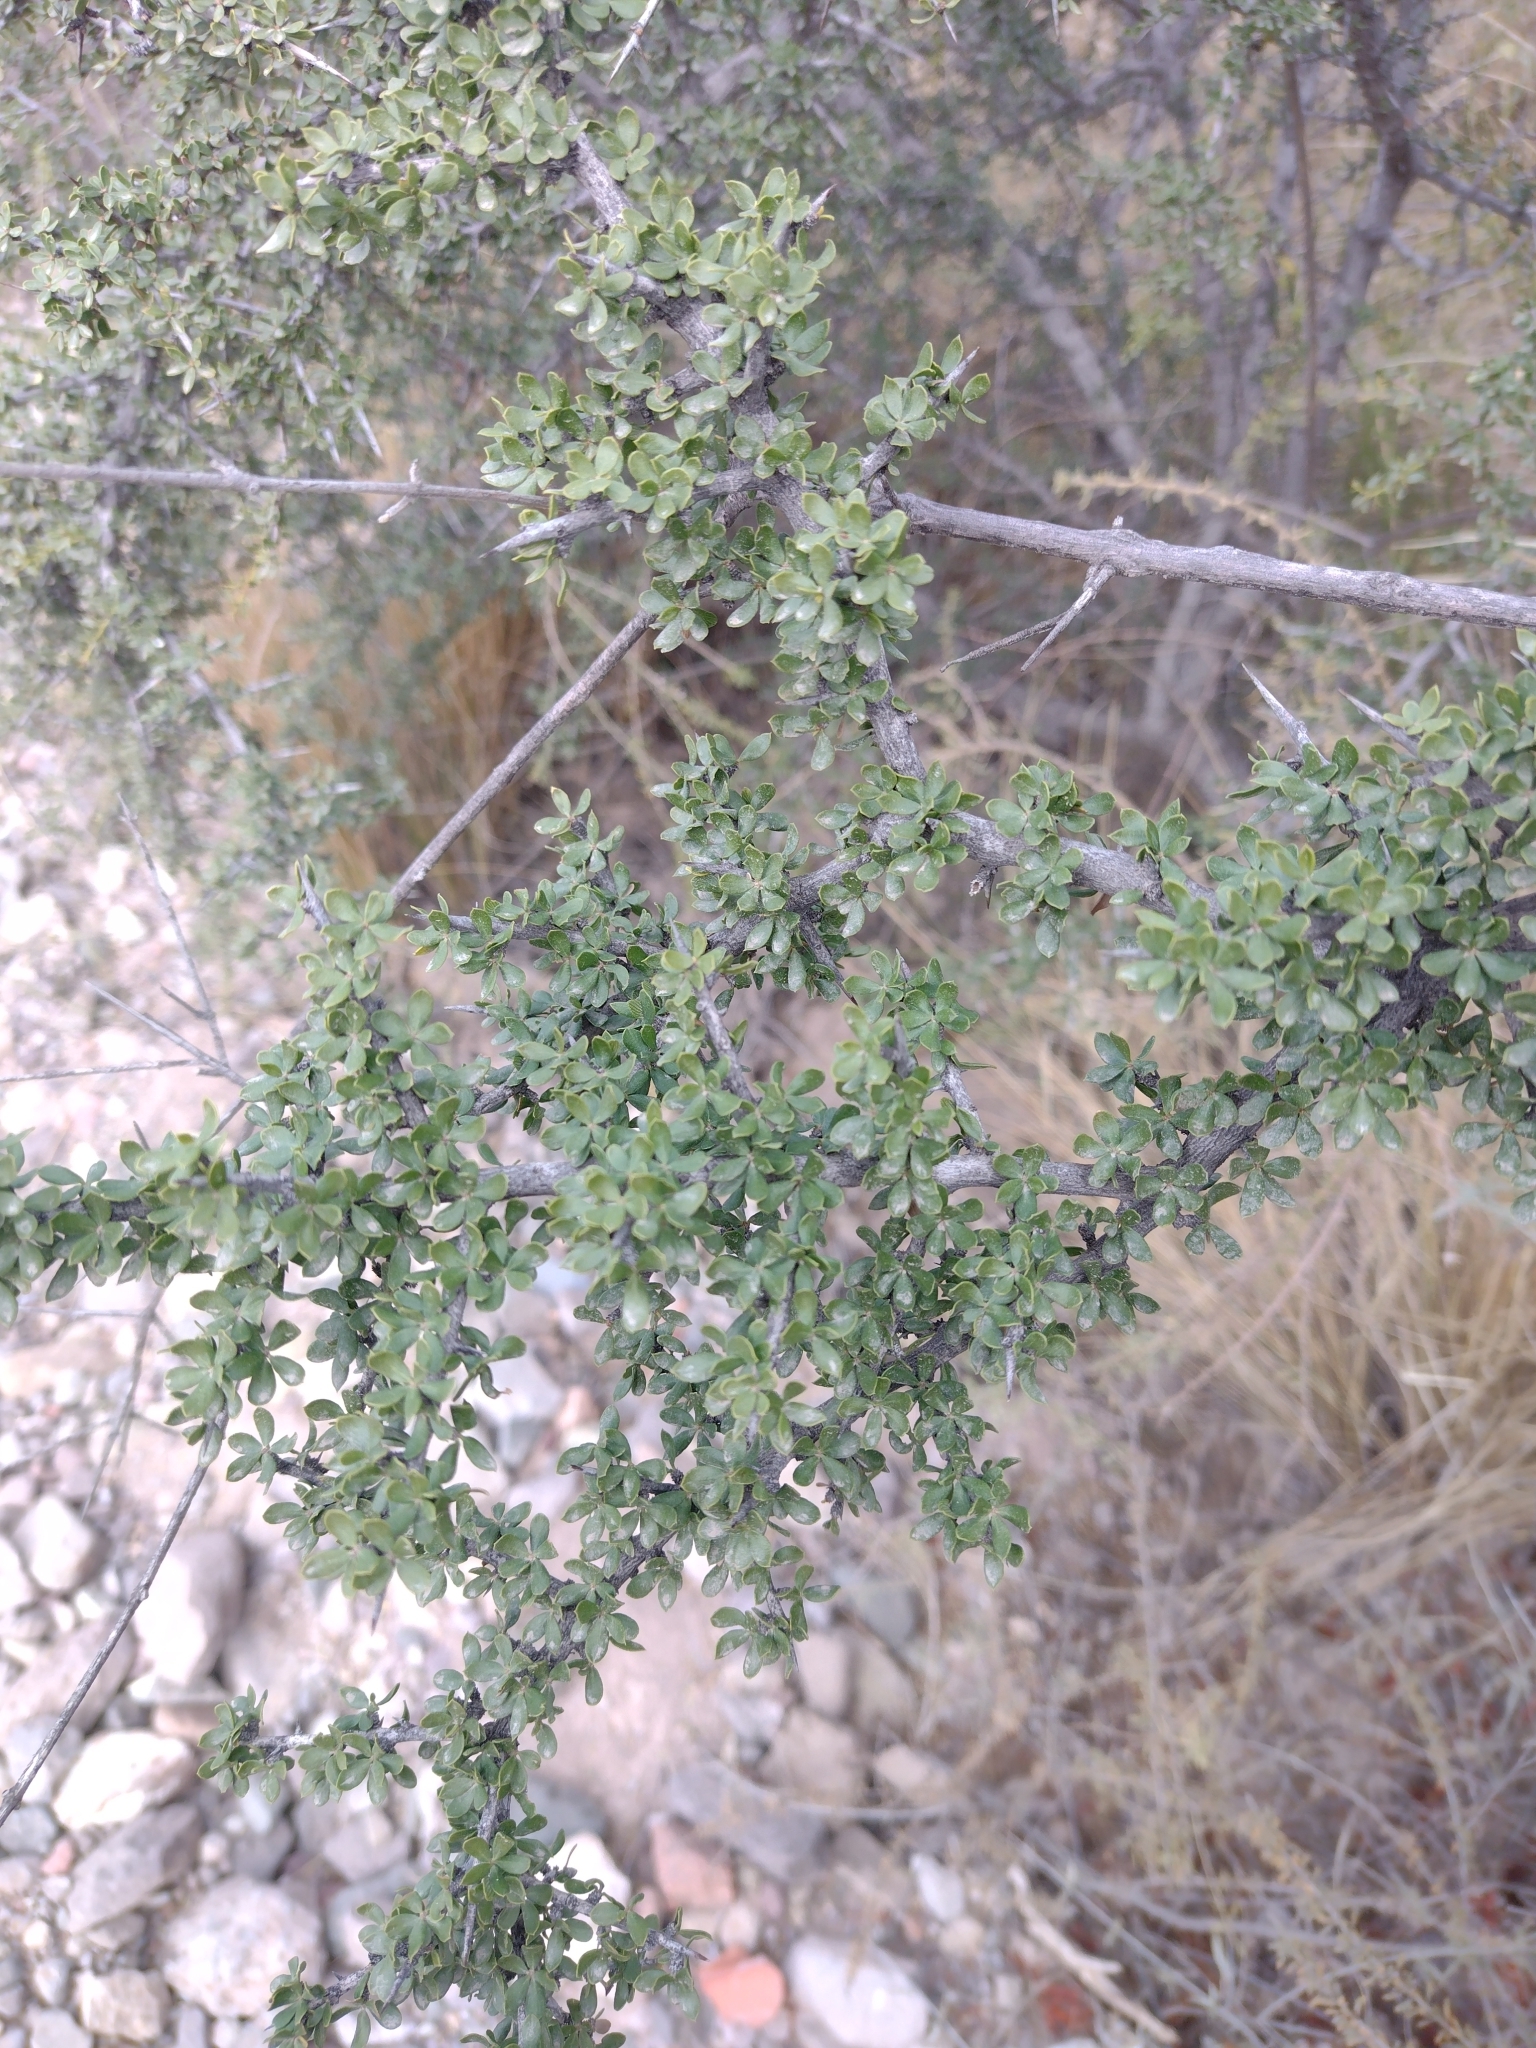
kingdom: Plantae
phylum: Tracheophyta
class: Magnoliopsida
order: Rosales
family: Rhamnaceae
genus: Condalia
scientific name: Condalia microphylla
